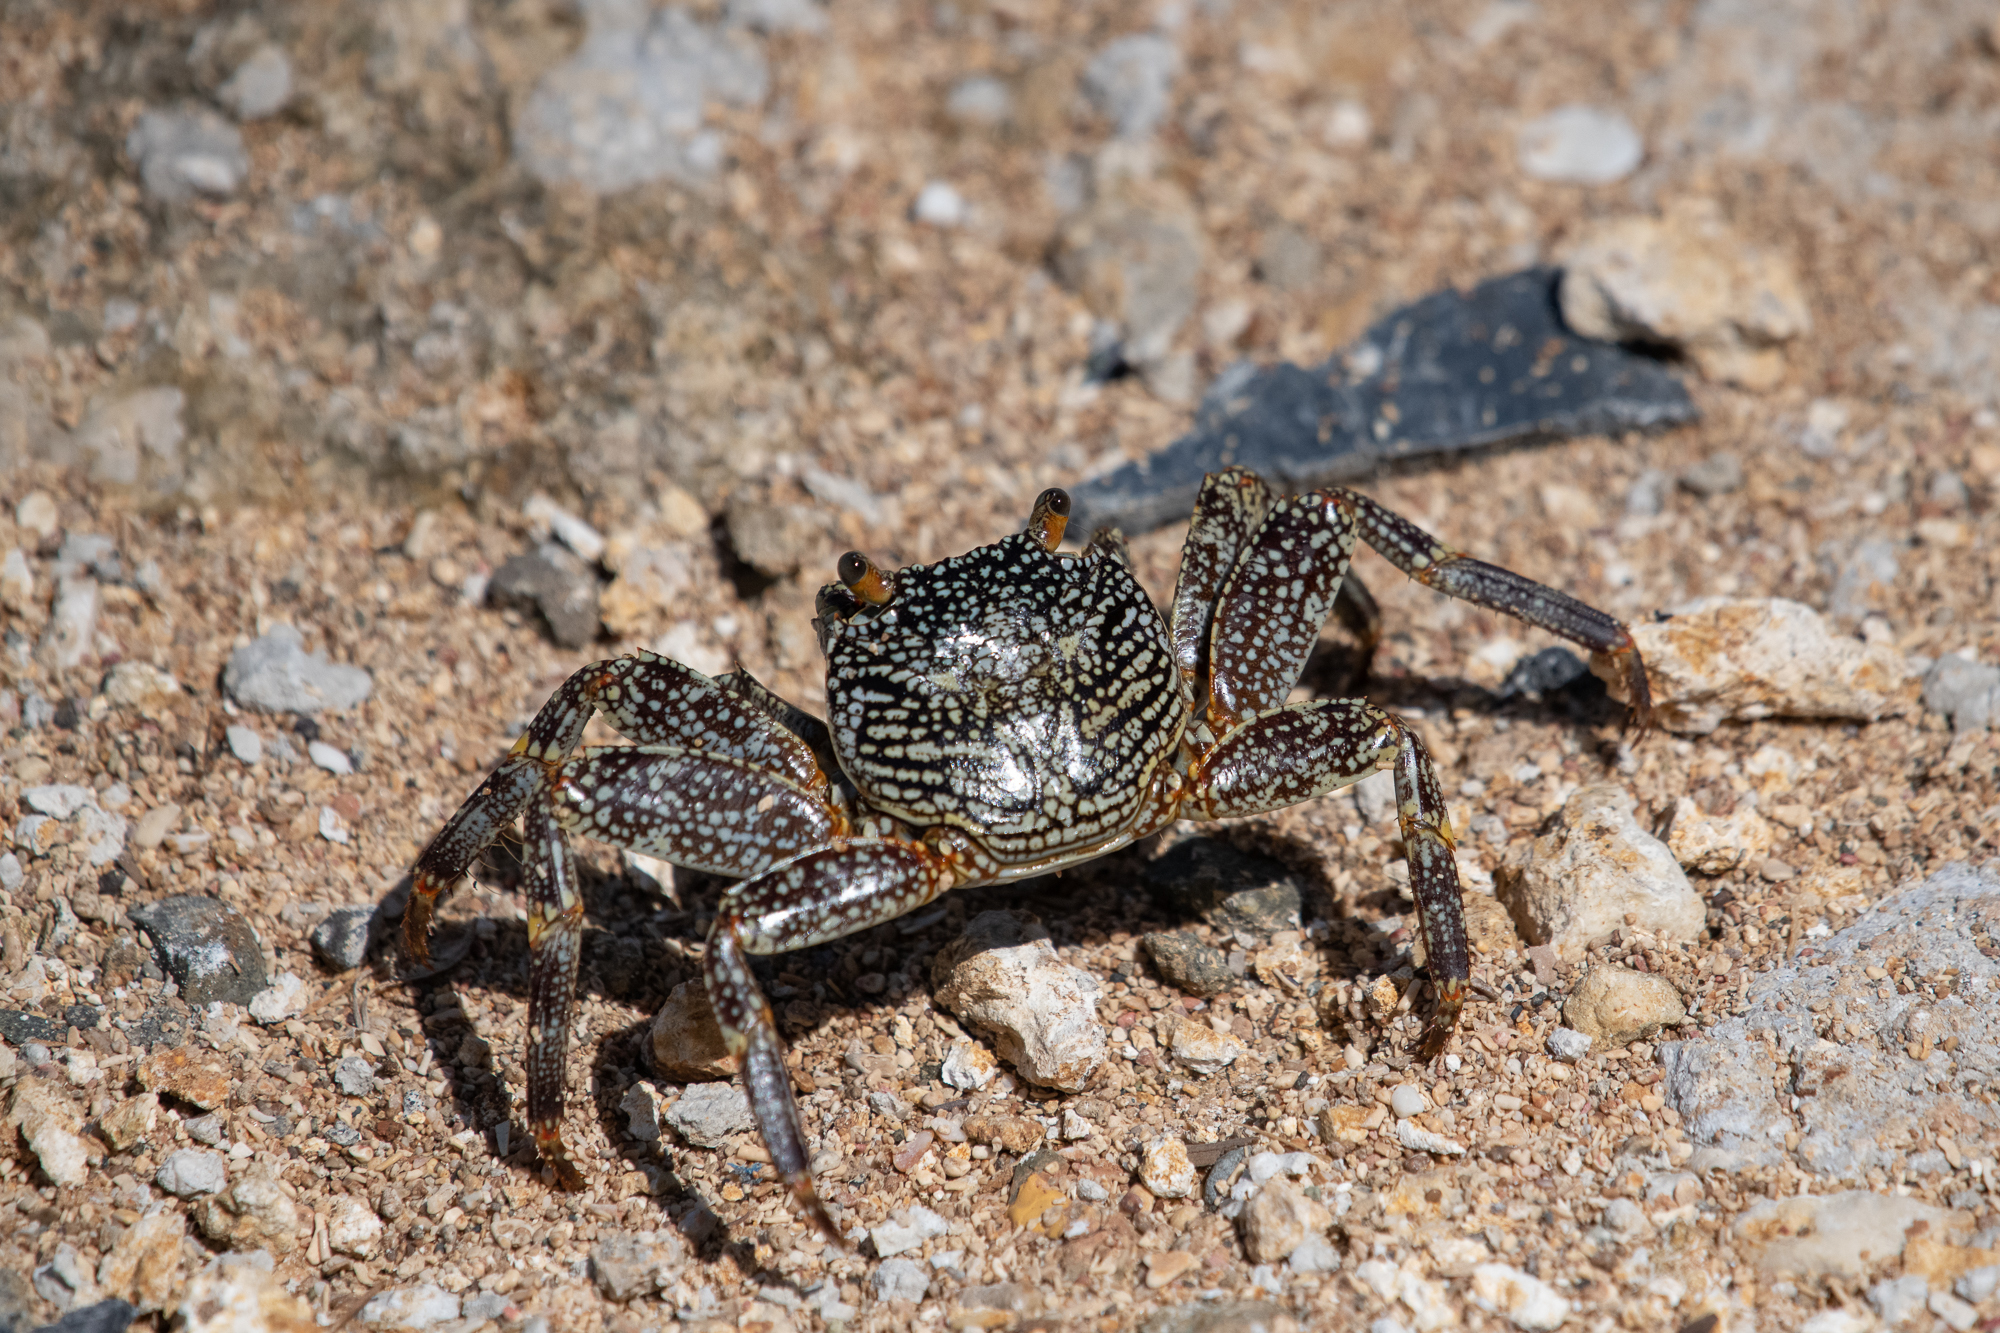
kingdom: Animalia
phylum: Arthropoda
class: Malacostraca
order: Decapoda
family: Grapsidae
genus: Grapsus
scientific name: Grapsus grapsus
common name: Sally lightfoot
